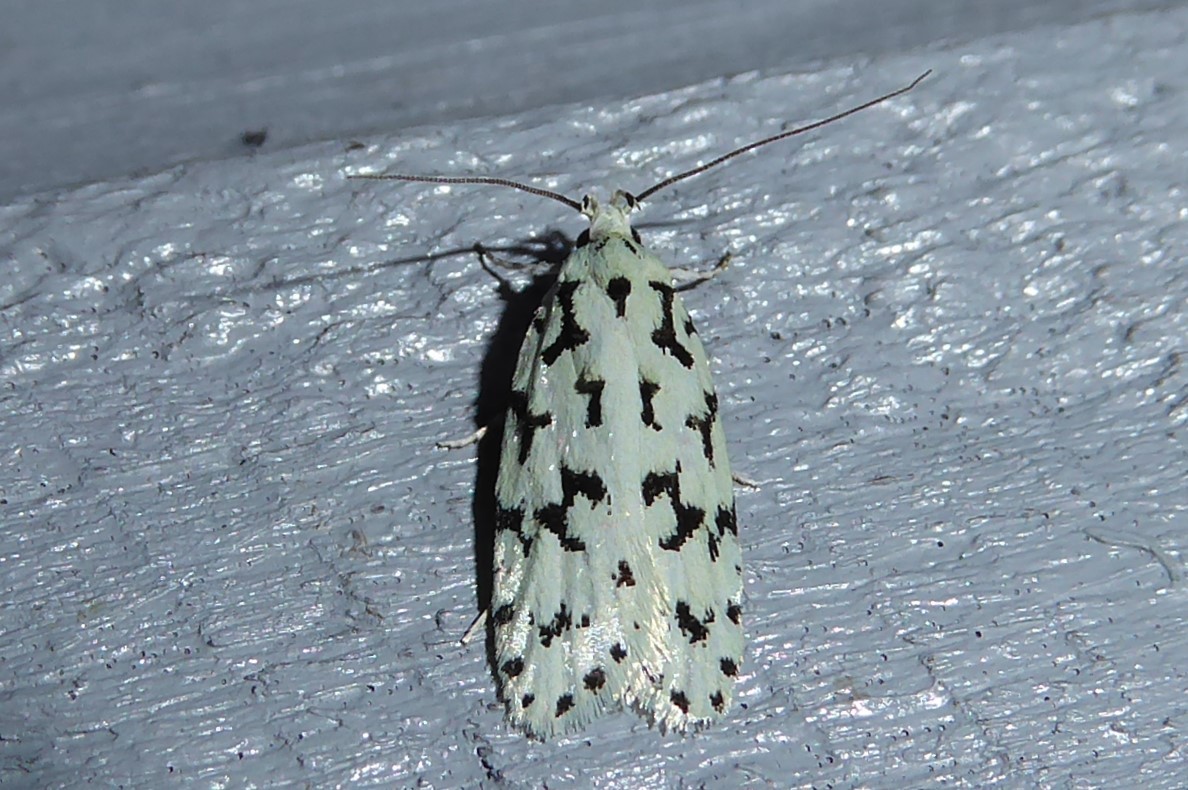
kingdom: Animalia
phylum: Arthropoda
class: Insecta
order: Lepidoptera
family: Oecophoridae
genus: Izatha
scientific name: Izatha huttoni
